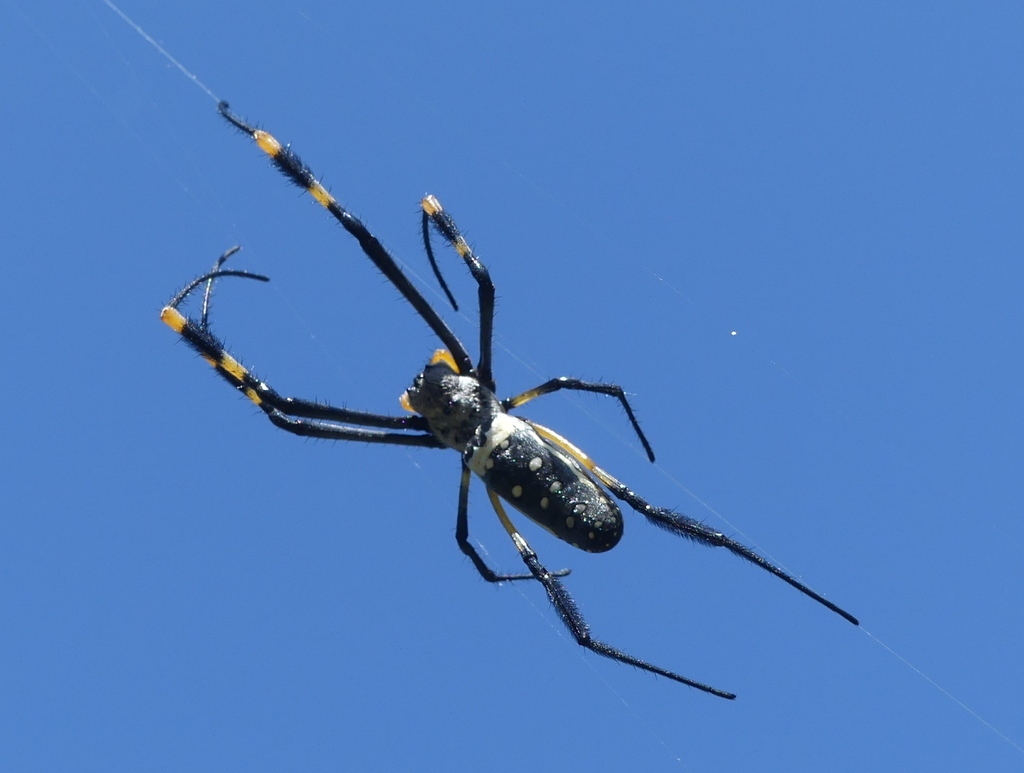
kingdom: Animalia
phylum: Arthropoda
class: Arachnida
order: Araneae
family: Araneidae
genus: Trichonephila
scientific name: Trichonephila senegalensis
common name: Banded golden orb weaver
